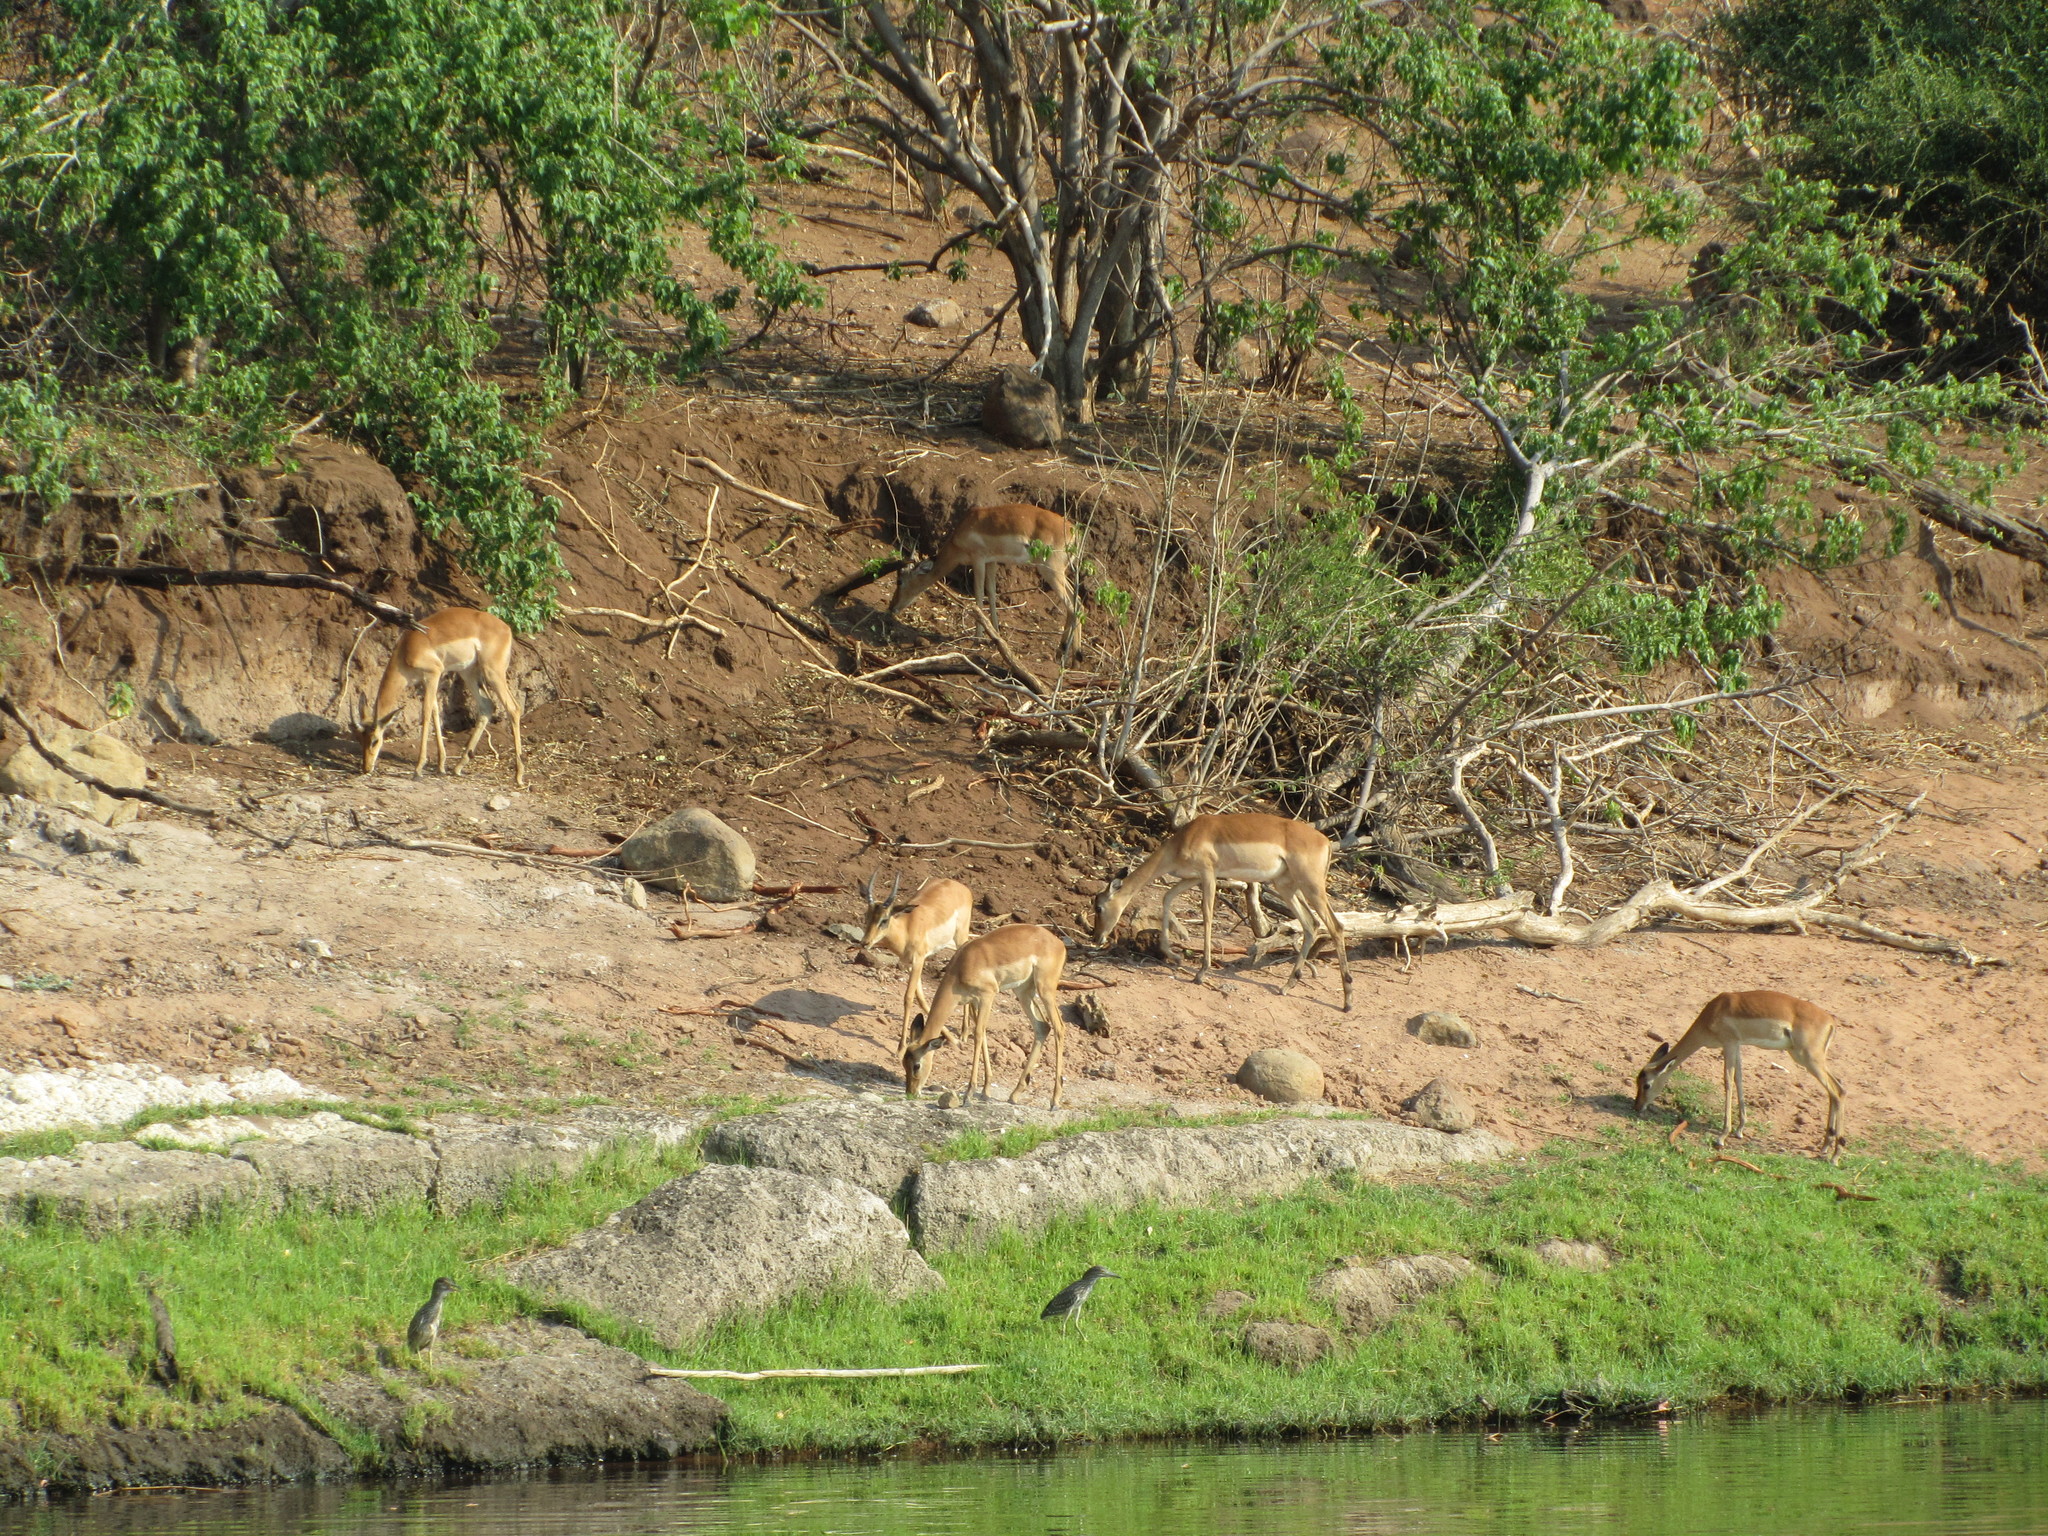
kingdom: Animalia
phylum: Chordata
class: Mammalia
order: Artiodactyla
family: Bovidae
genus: Aepyceros
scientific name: Aepyceros melampus
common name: Impala
